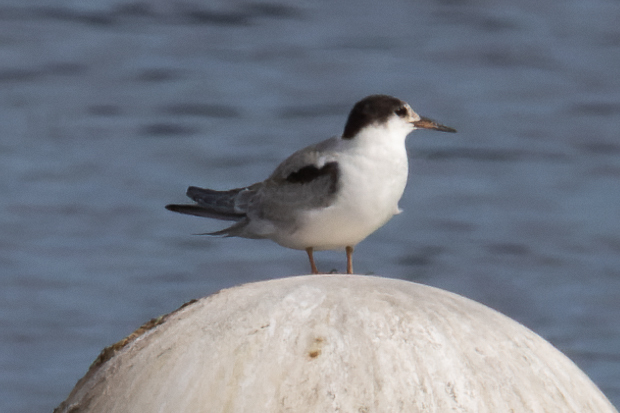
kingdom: Animalia
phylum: Chordata
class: Aves
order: Charadriiformes
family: Laridae
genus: Sterna
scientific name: Sterna hirundo
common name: Common tern
